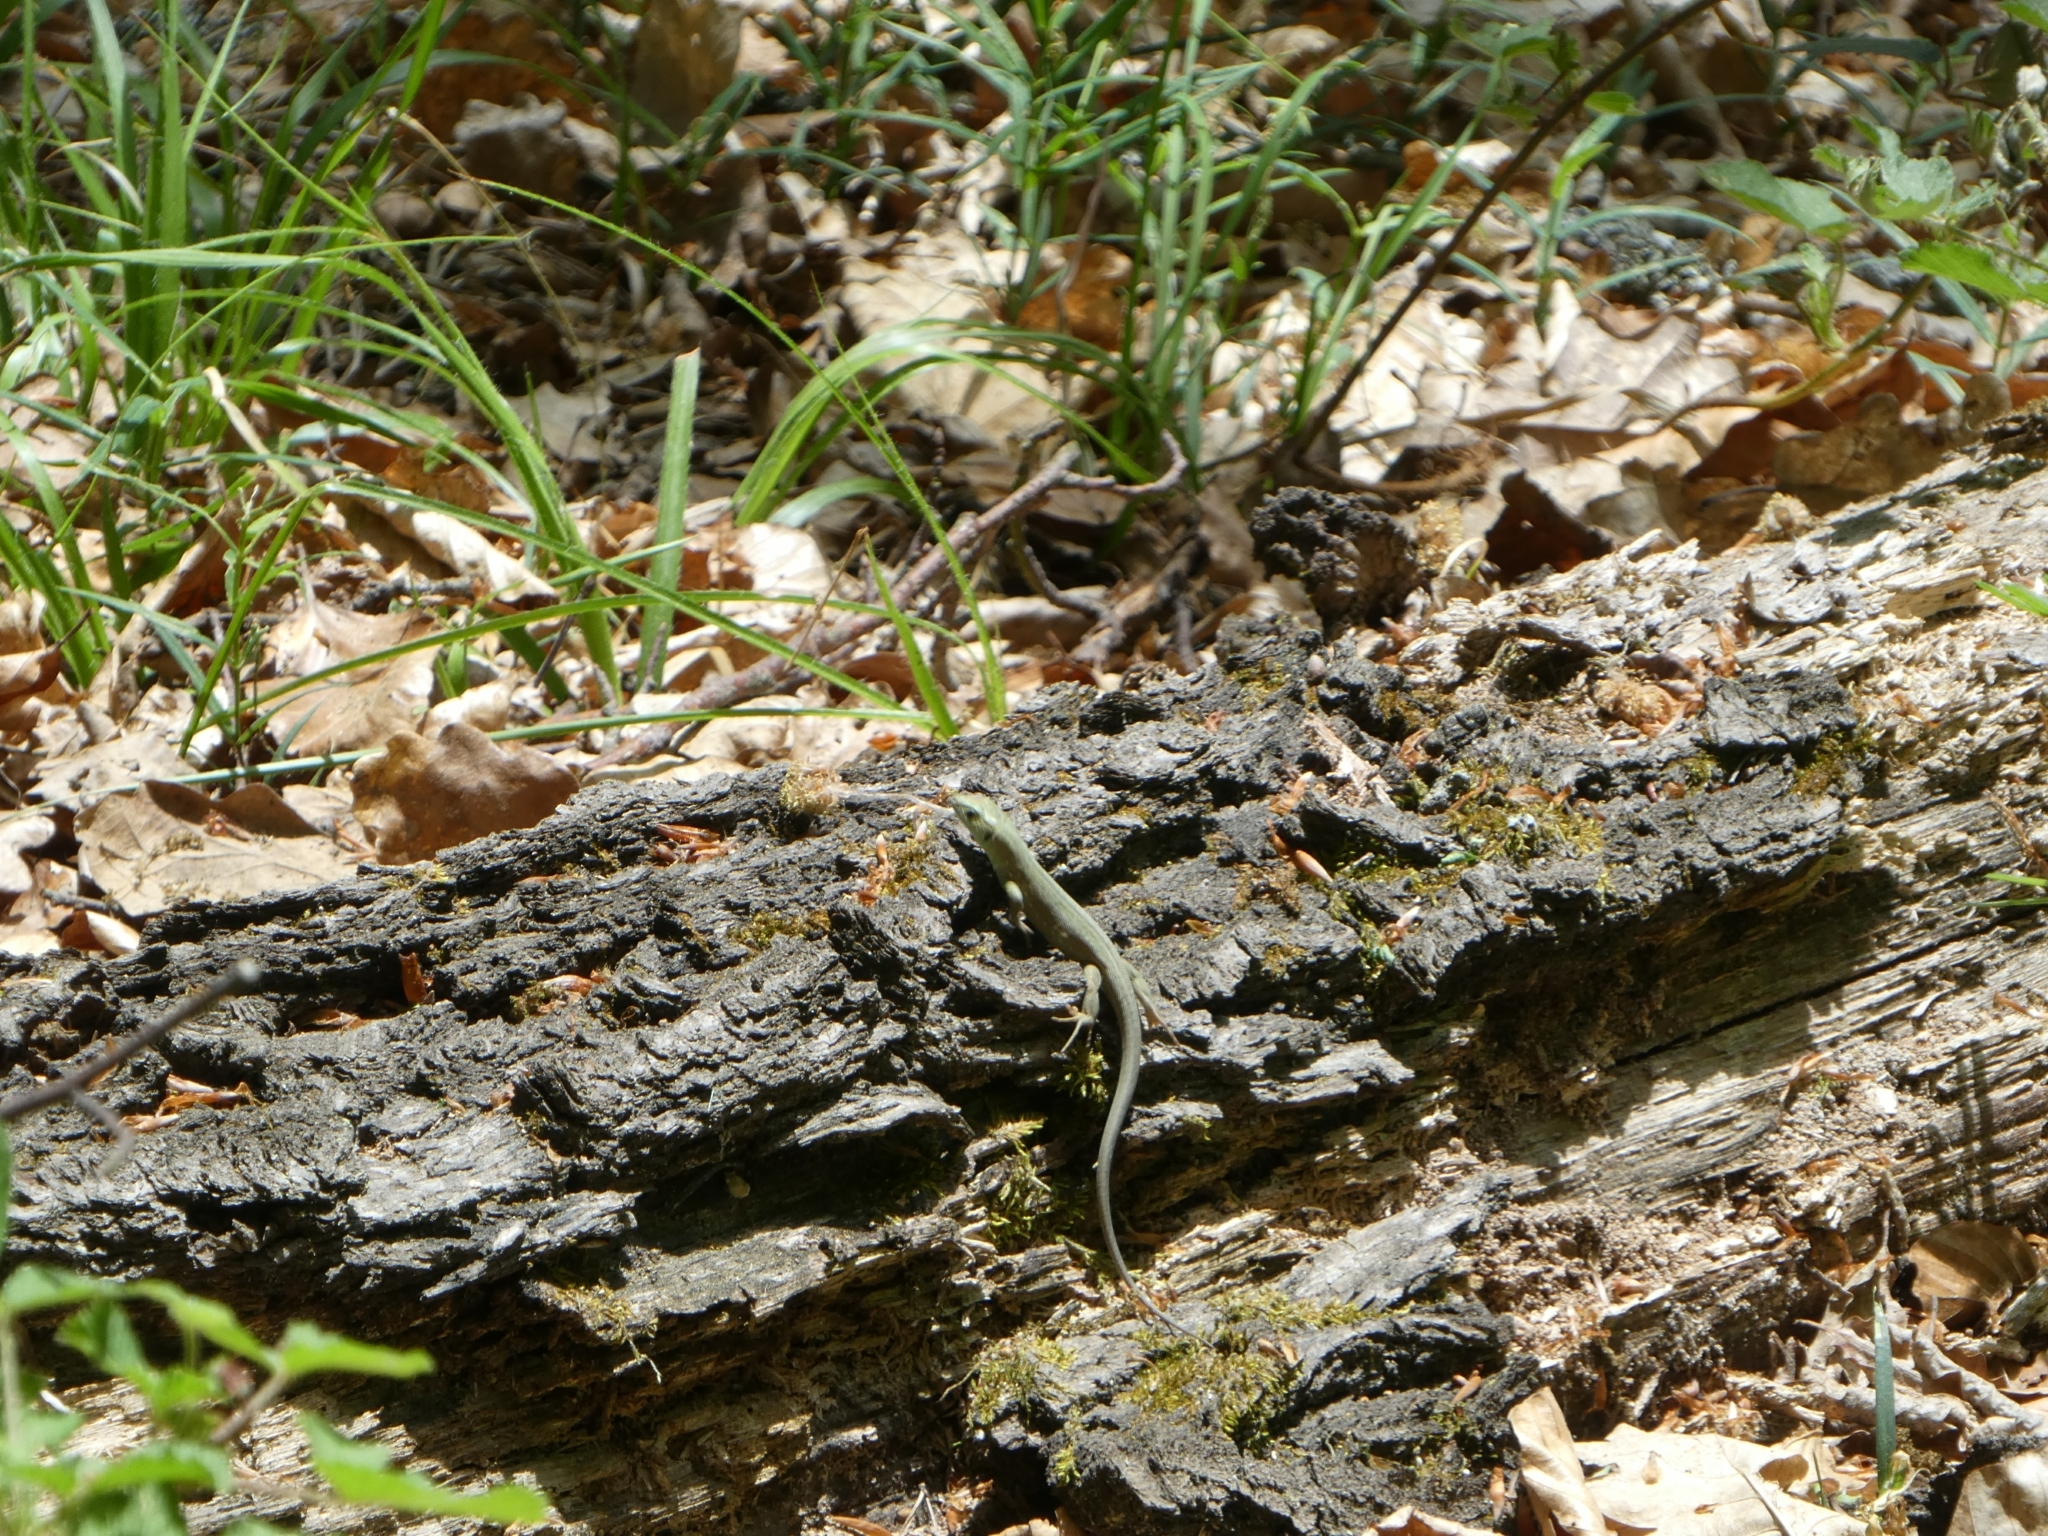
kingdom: Animalia
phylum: Chordata
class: Squamata
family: Lacertidae
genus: Lacerta
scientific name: Lacerta viridis
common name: European green lizard
